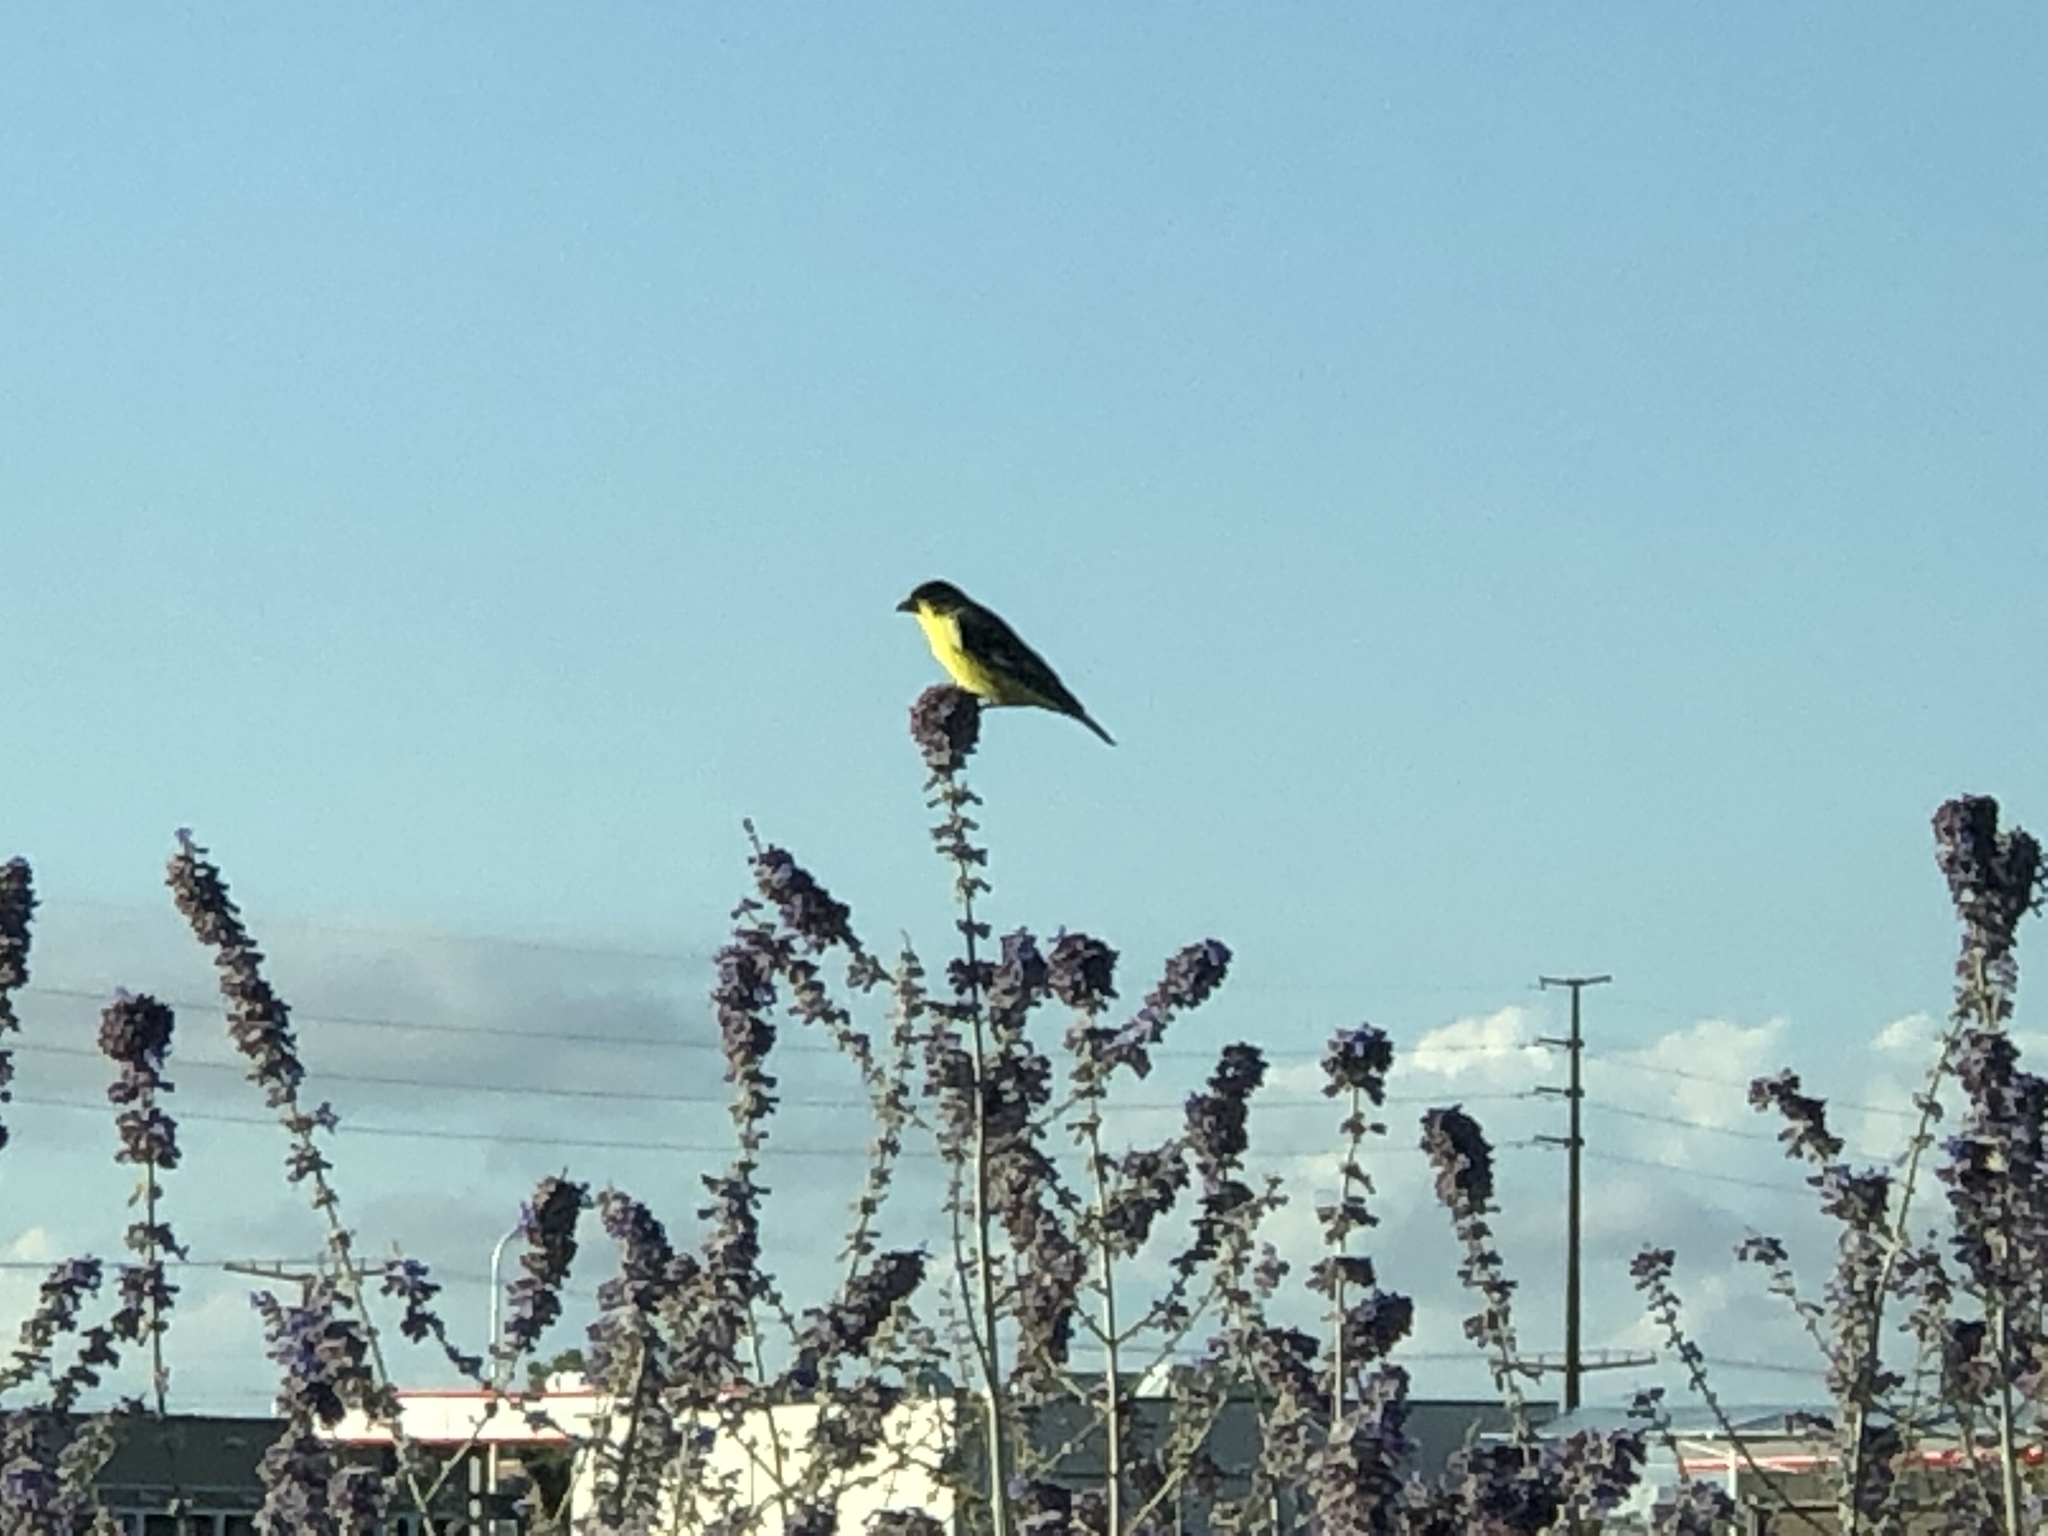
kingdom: Animalia
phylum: Chordata
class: Aves
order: Passeriformes
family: Fringillidae
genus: Spinus
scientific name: Spinus psaltria
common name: Lesser goldfinch
